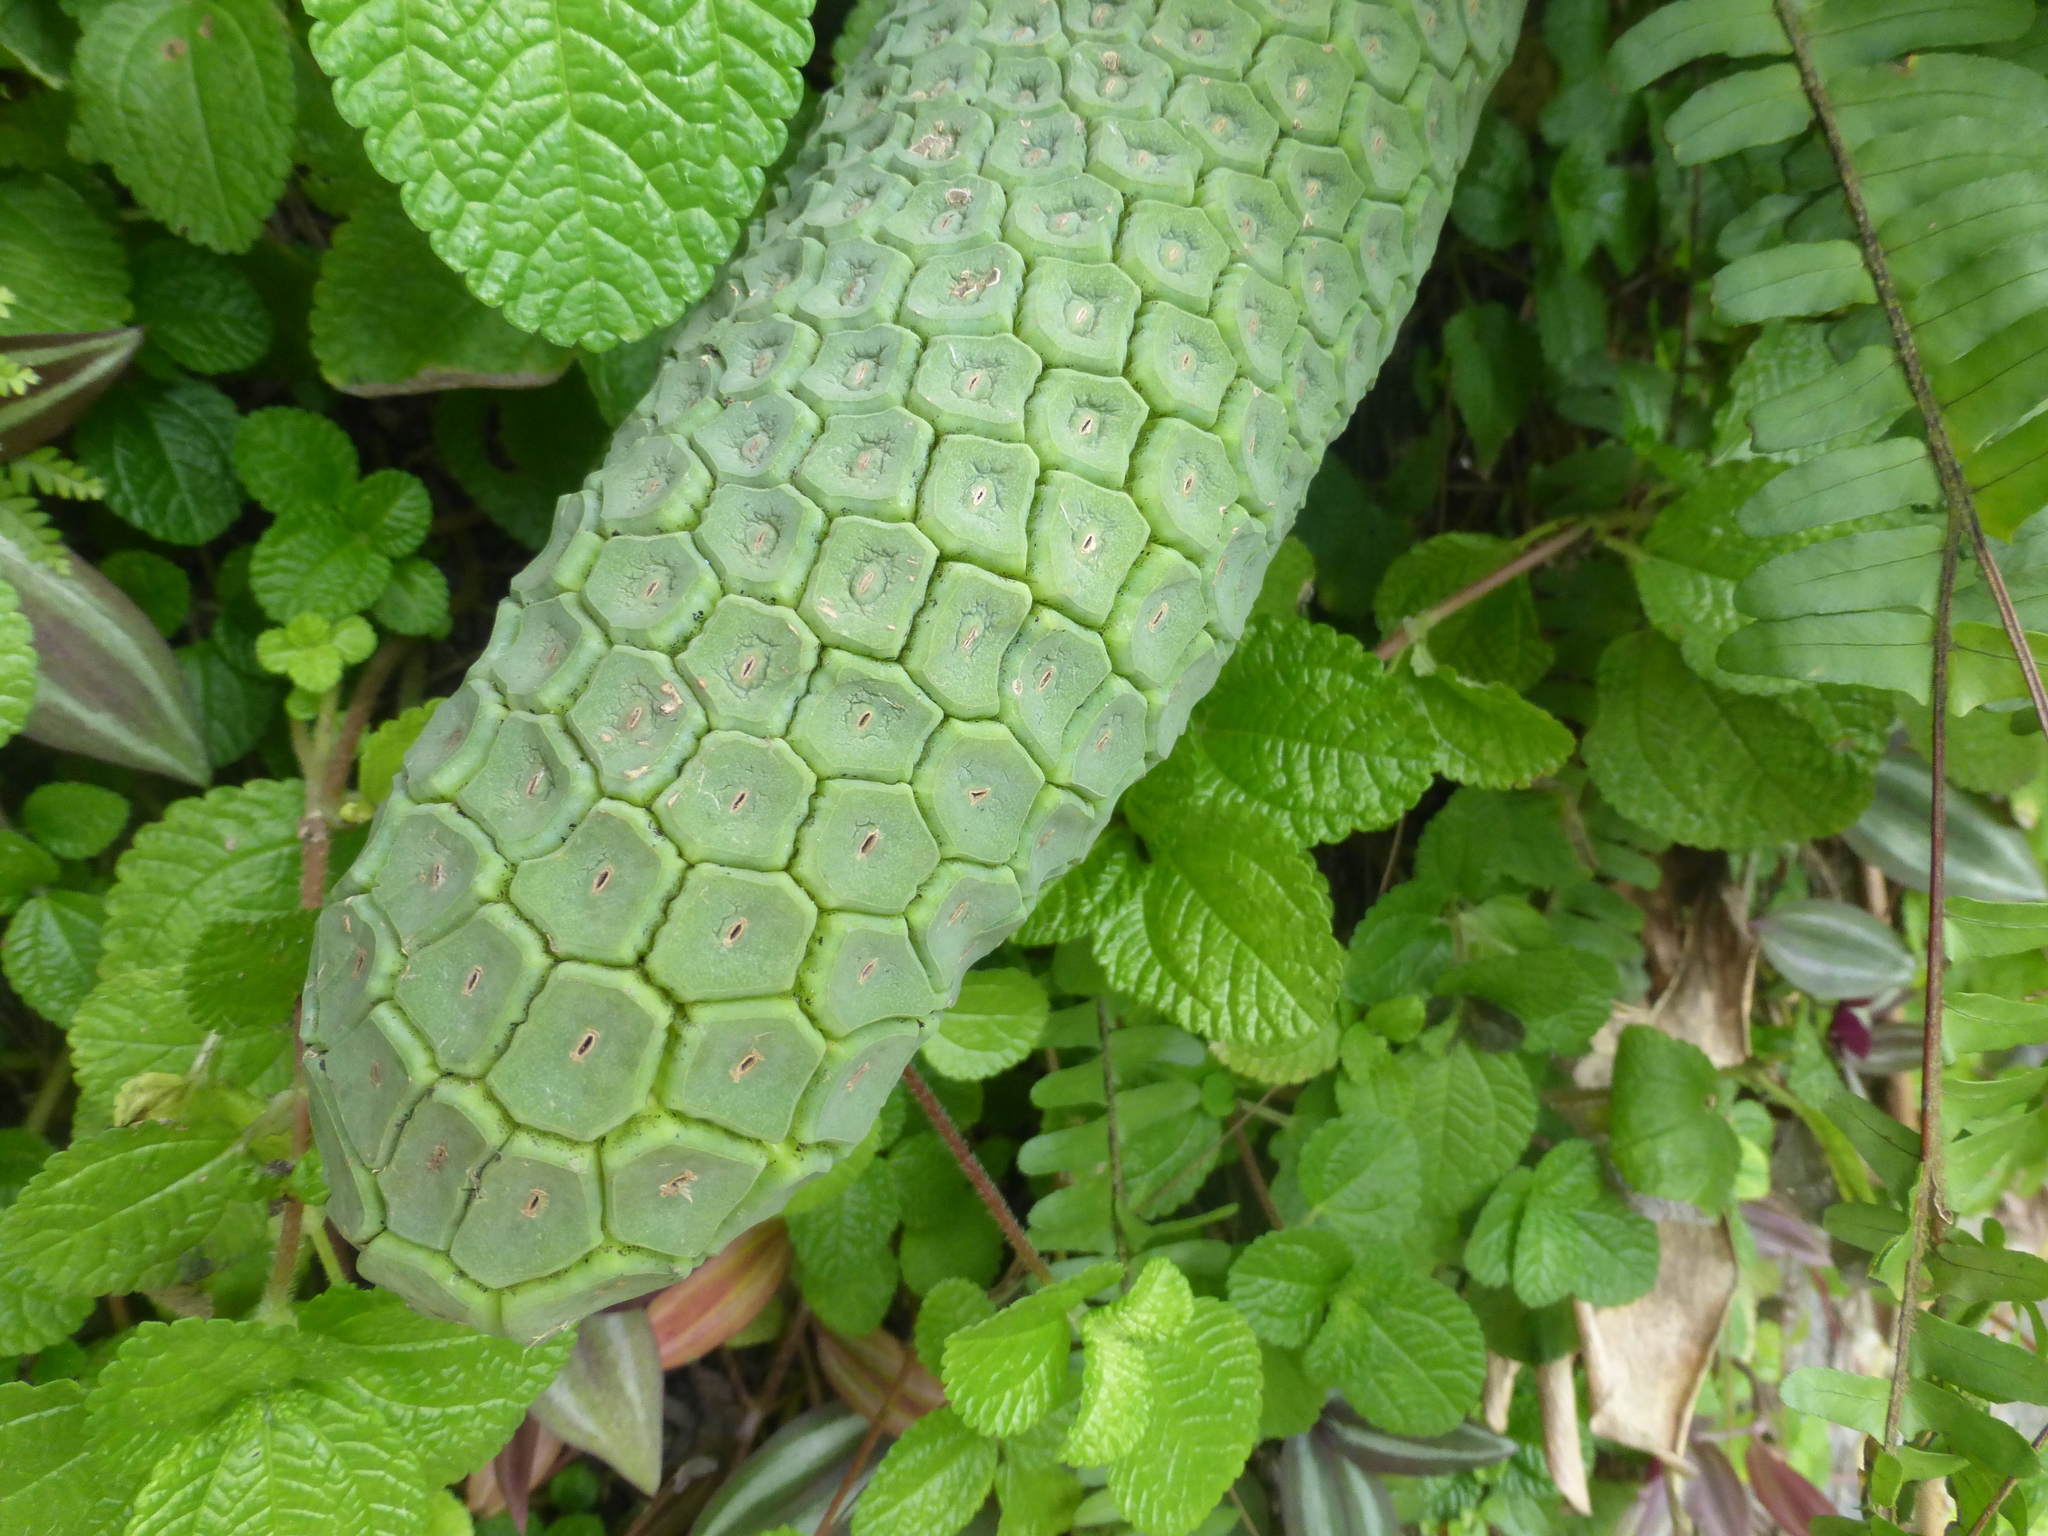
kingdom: Plantae
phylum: Tracheophyta
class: Liliopsida
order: Alismatales
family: Araceae
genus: Monstera
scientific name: Monstera deliciosa
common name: Cut-leaf-philodendron
